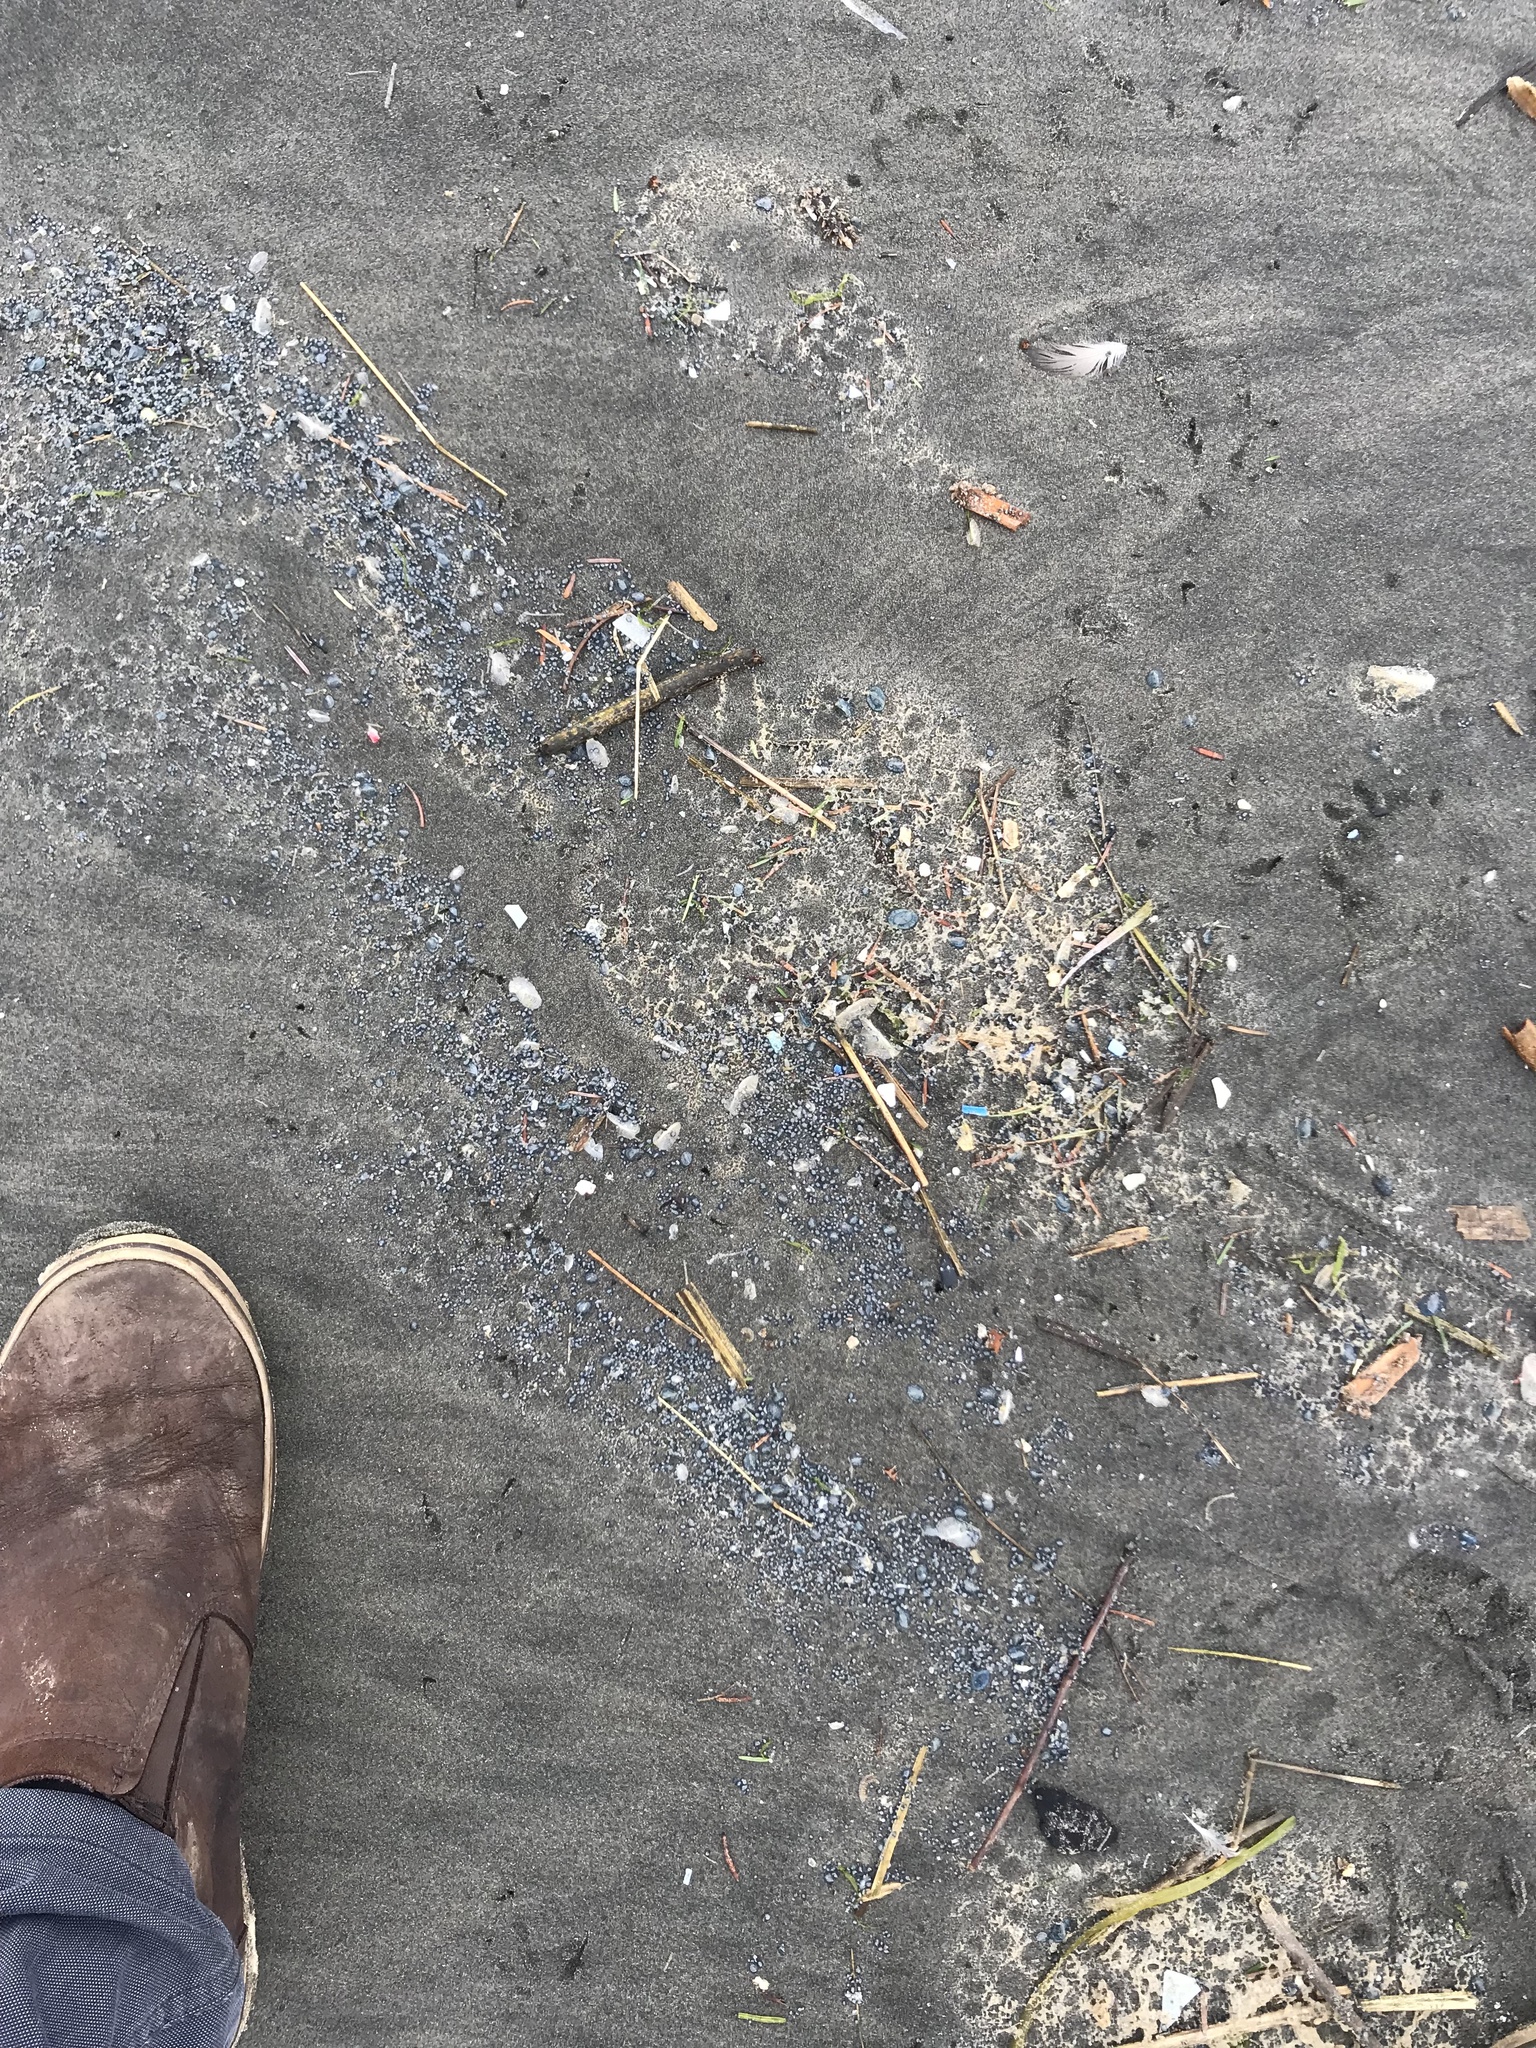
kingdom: Animalia
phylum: Cnidaria
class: Hydrozoa
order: Anthoathecata
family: Porpitidae
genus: Velella
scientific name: Velella velella
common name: By-the-wind-sailor
